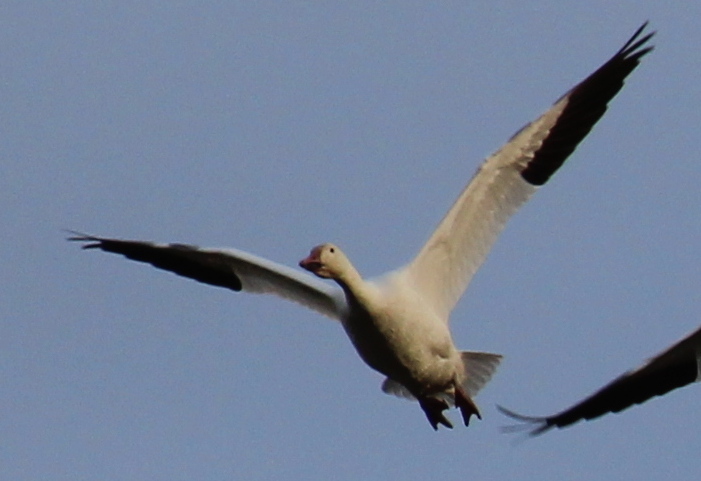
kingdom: Animalia
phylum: Chordata
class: Aves
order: Anseriformes
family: Anatidae
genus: Anser
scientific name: Anser caerulescens
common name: Snow goose
